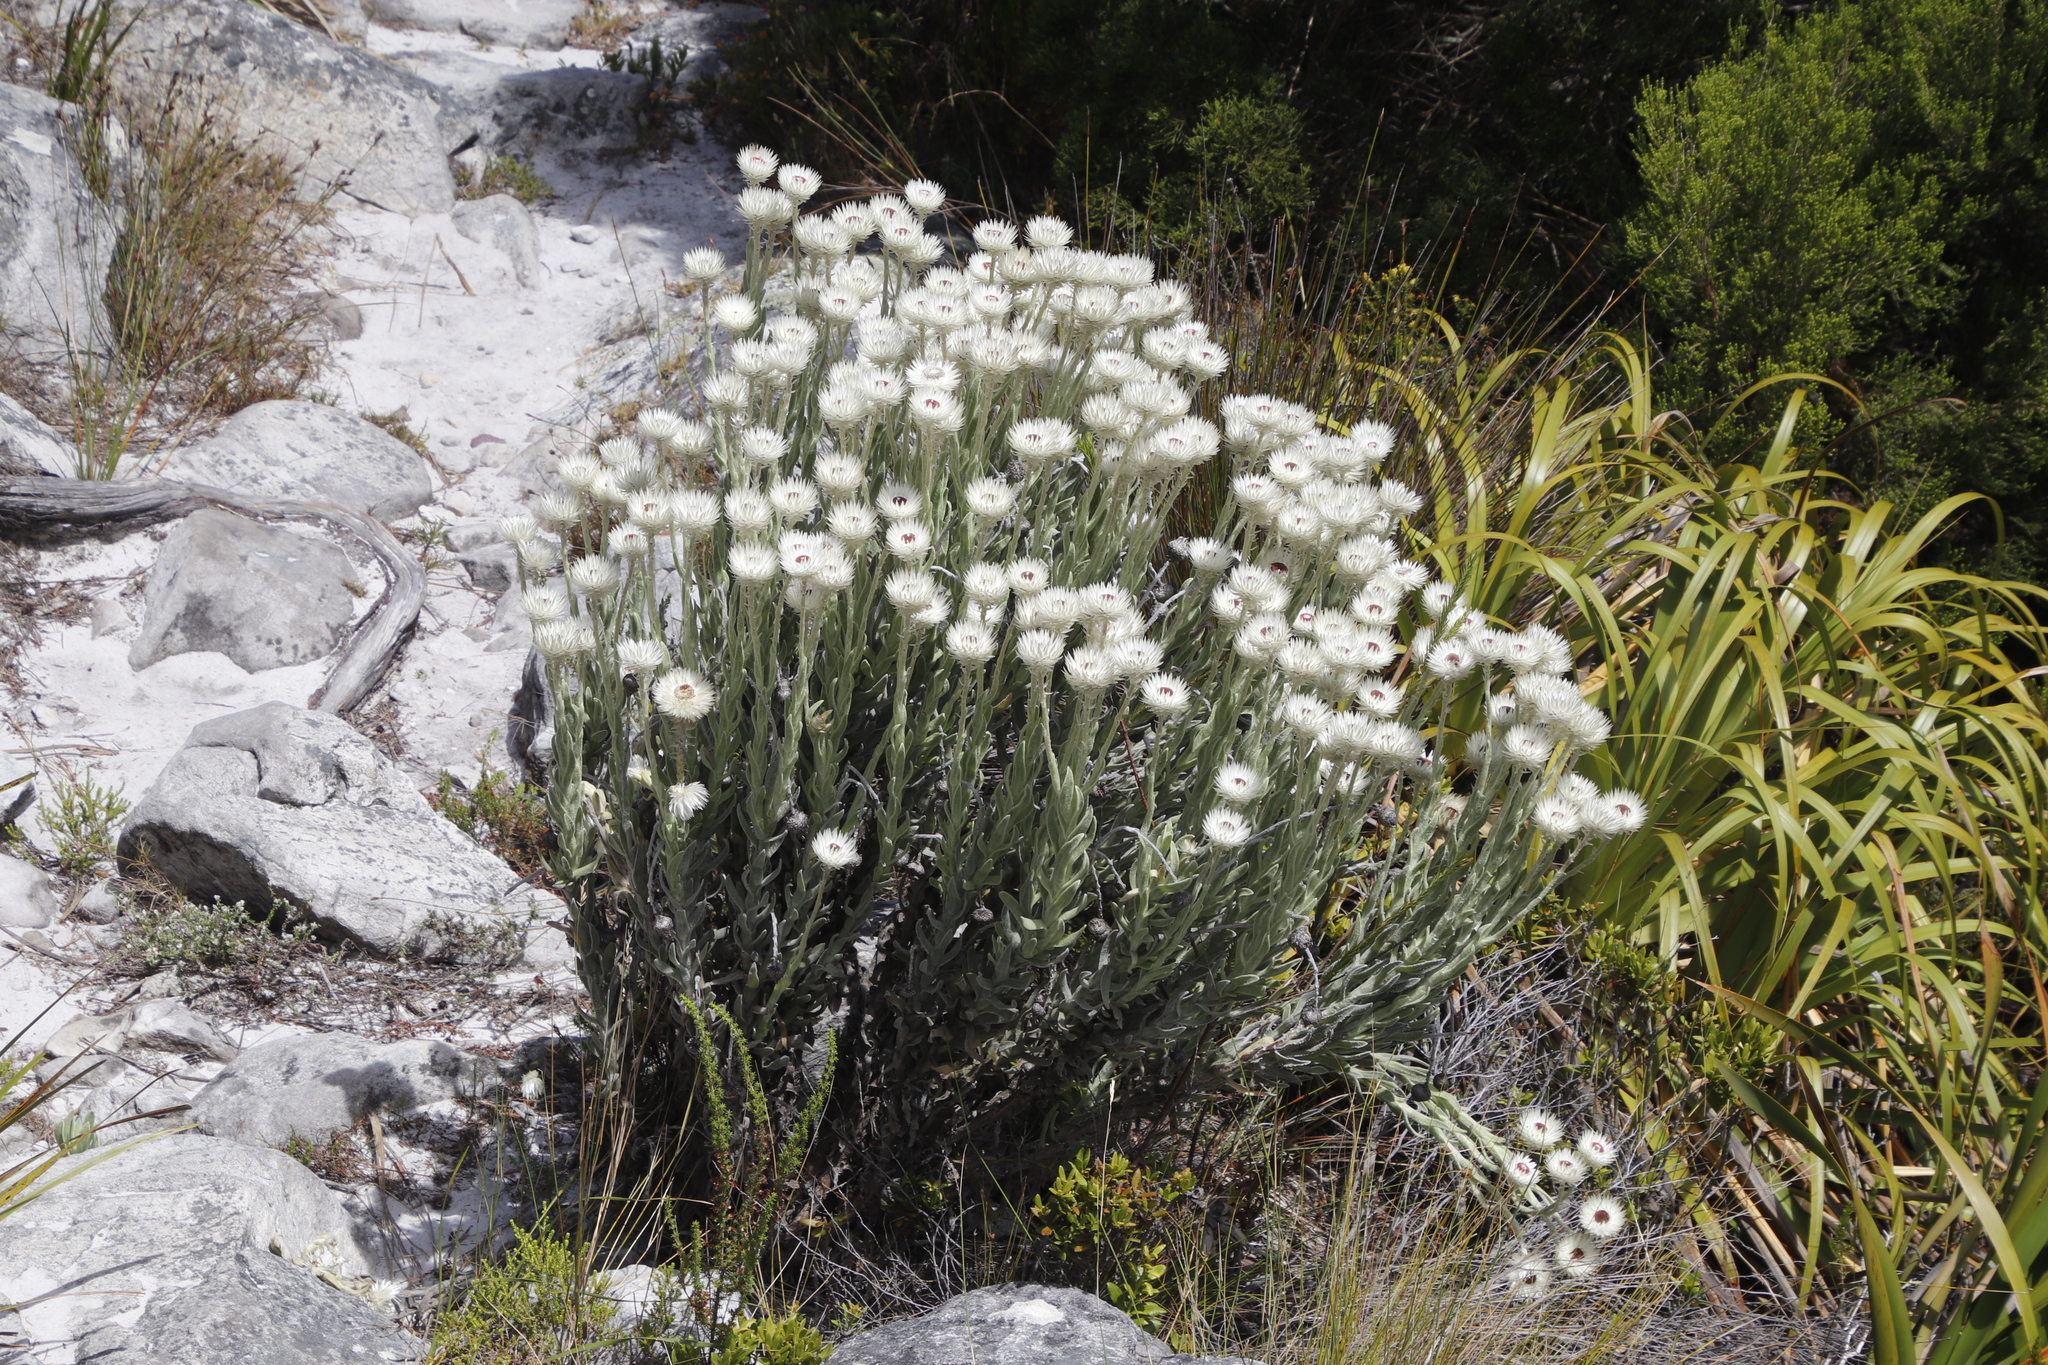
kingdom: Plantae
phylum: Tracheophyta
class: Magnoliopsida
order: Asterales
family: Asteraceae
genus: Syncarpha
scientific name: Syncarpha vestita
